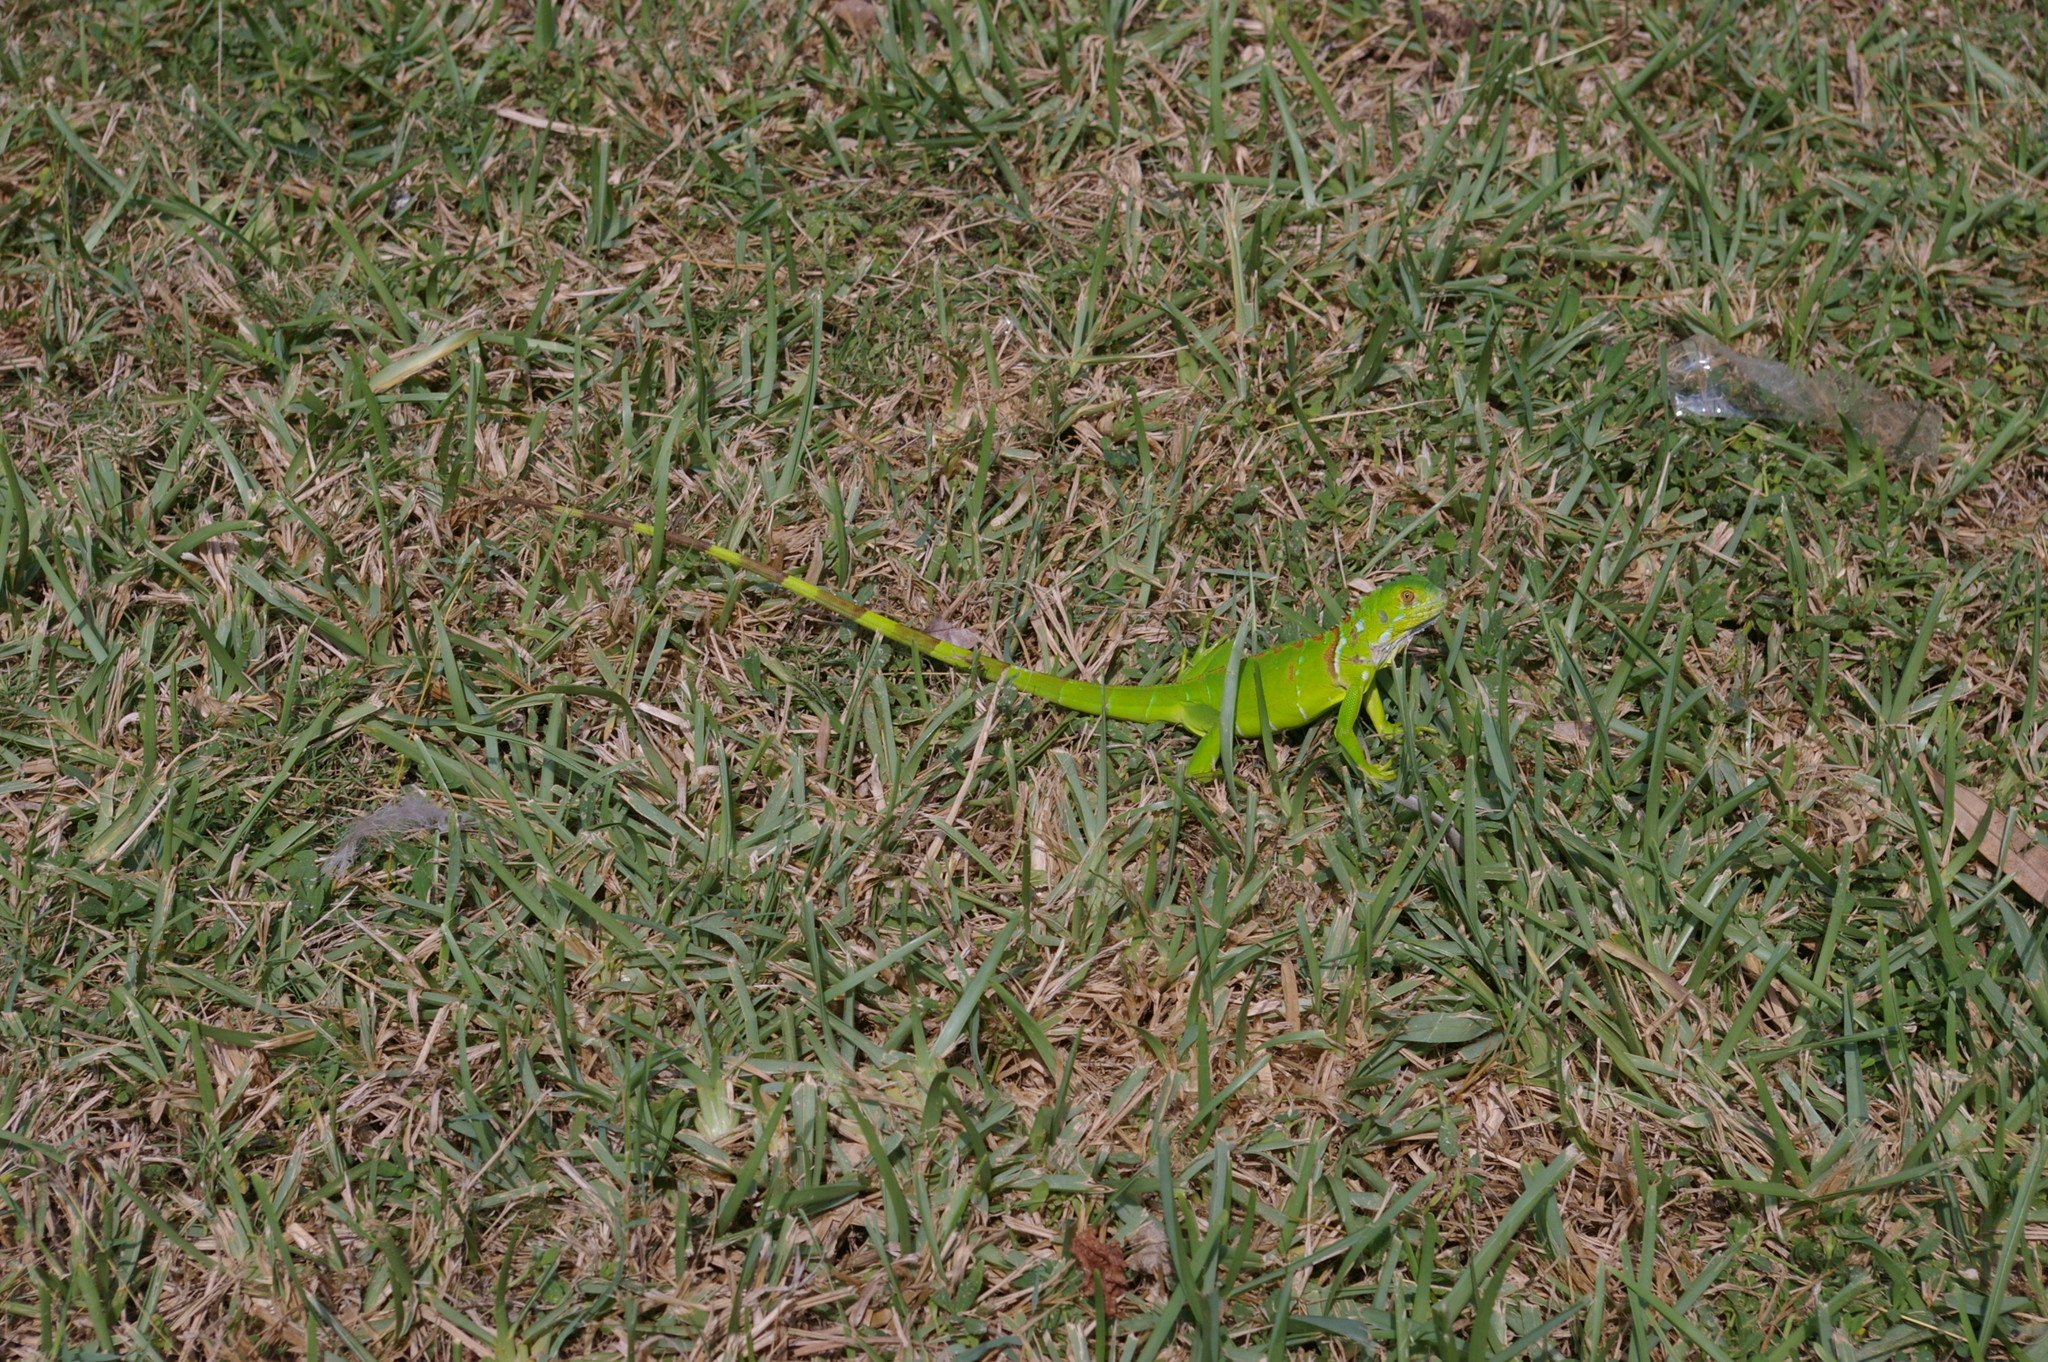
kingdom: Animalia
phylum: Chordata
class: Squamata
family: Iguanidae
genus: Iguana
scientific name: Iguana iguana
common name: Green iguana
